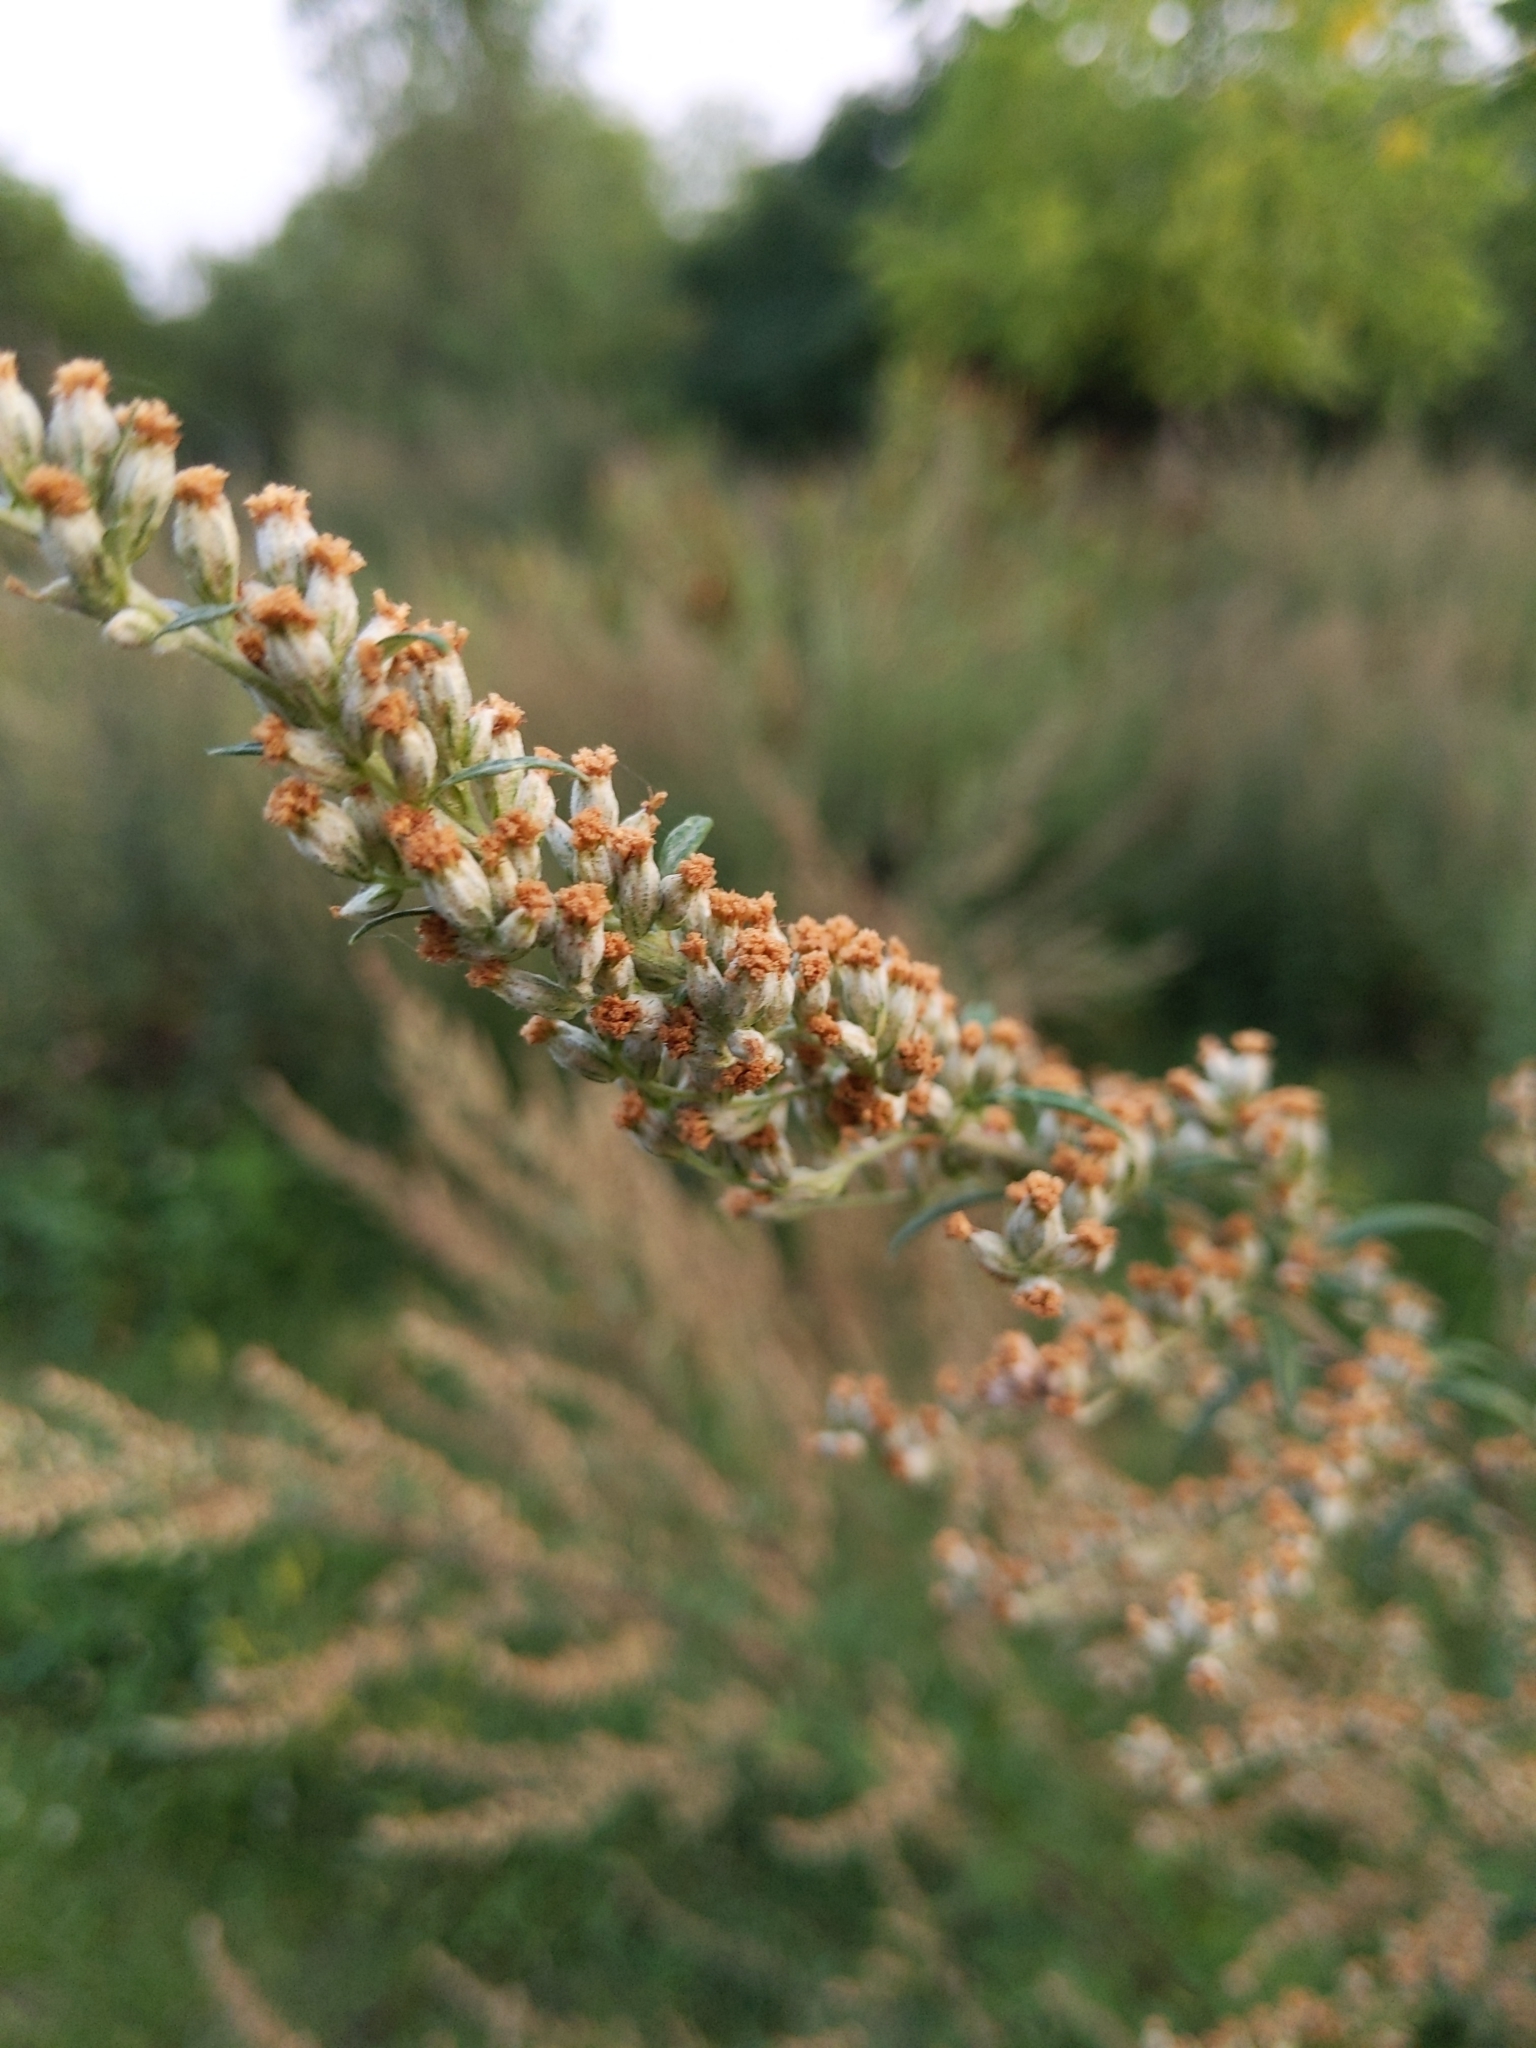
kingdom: Plantae
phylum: Tracheophyta
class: Magnoliopsida
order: Asterales
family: Asteraceae
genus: Artemisia
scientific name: Artemisia vulgaris
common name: Mugwort
